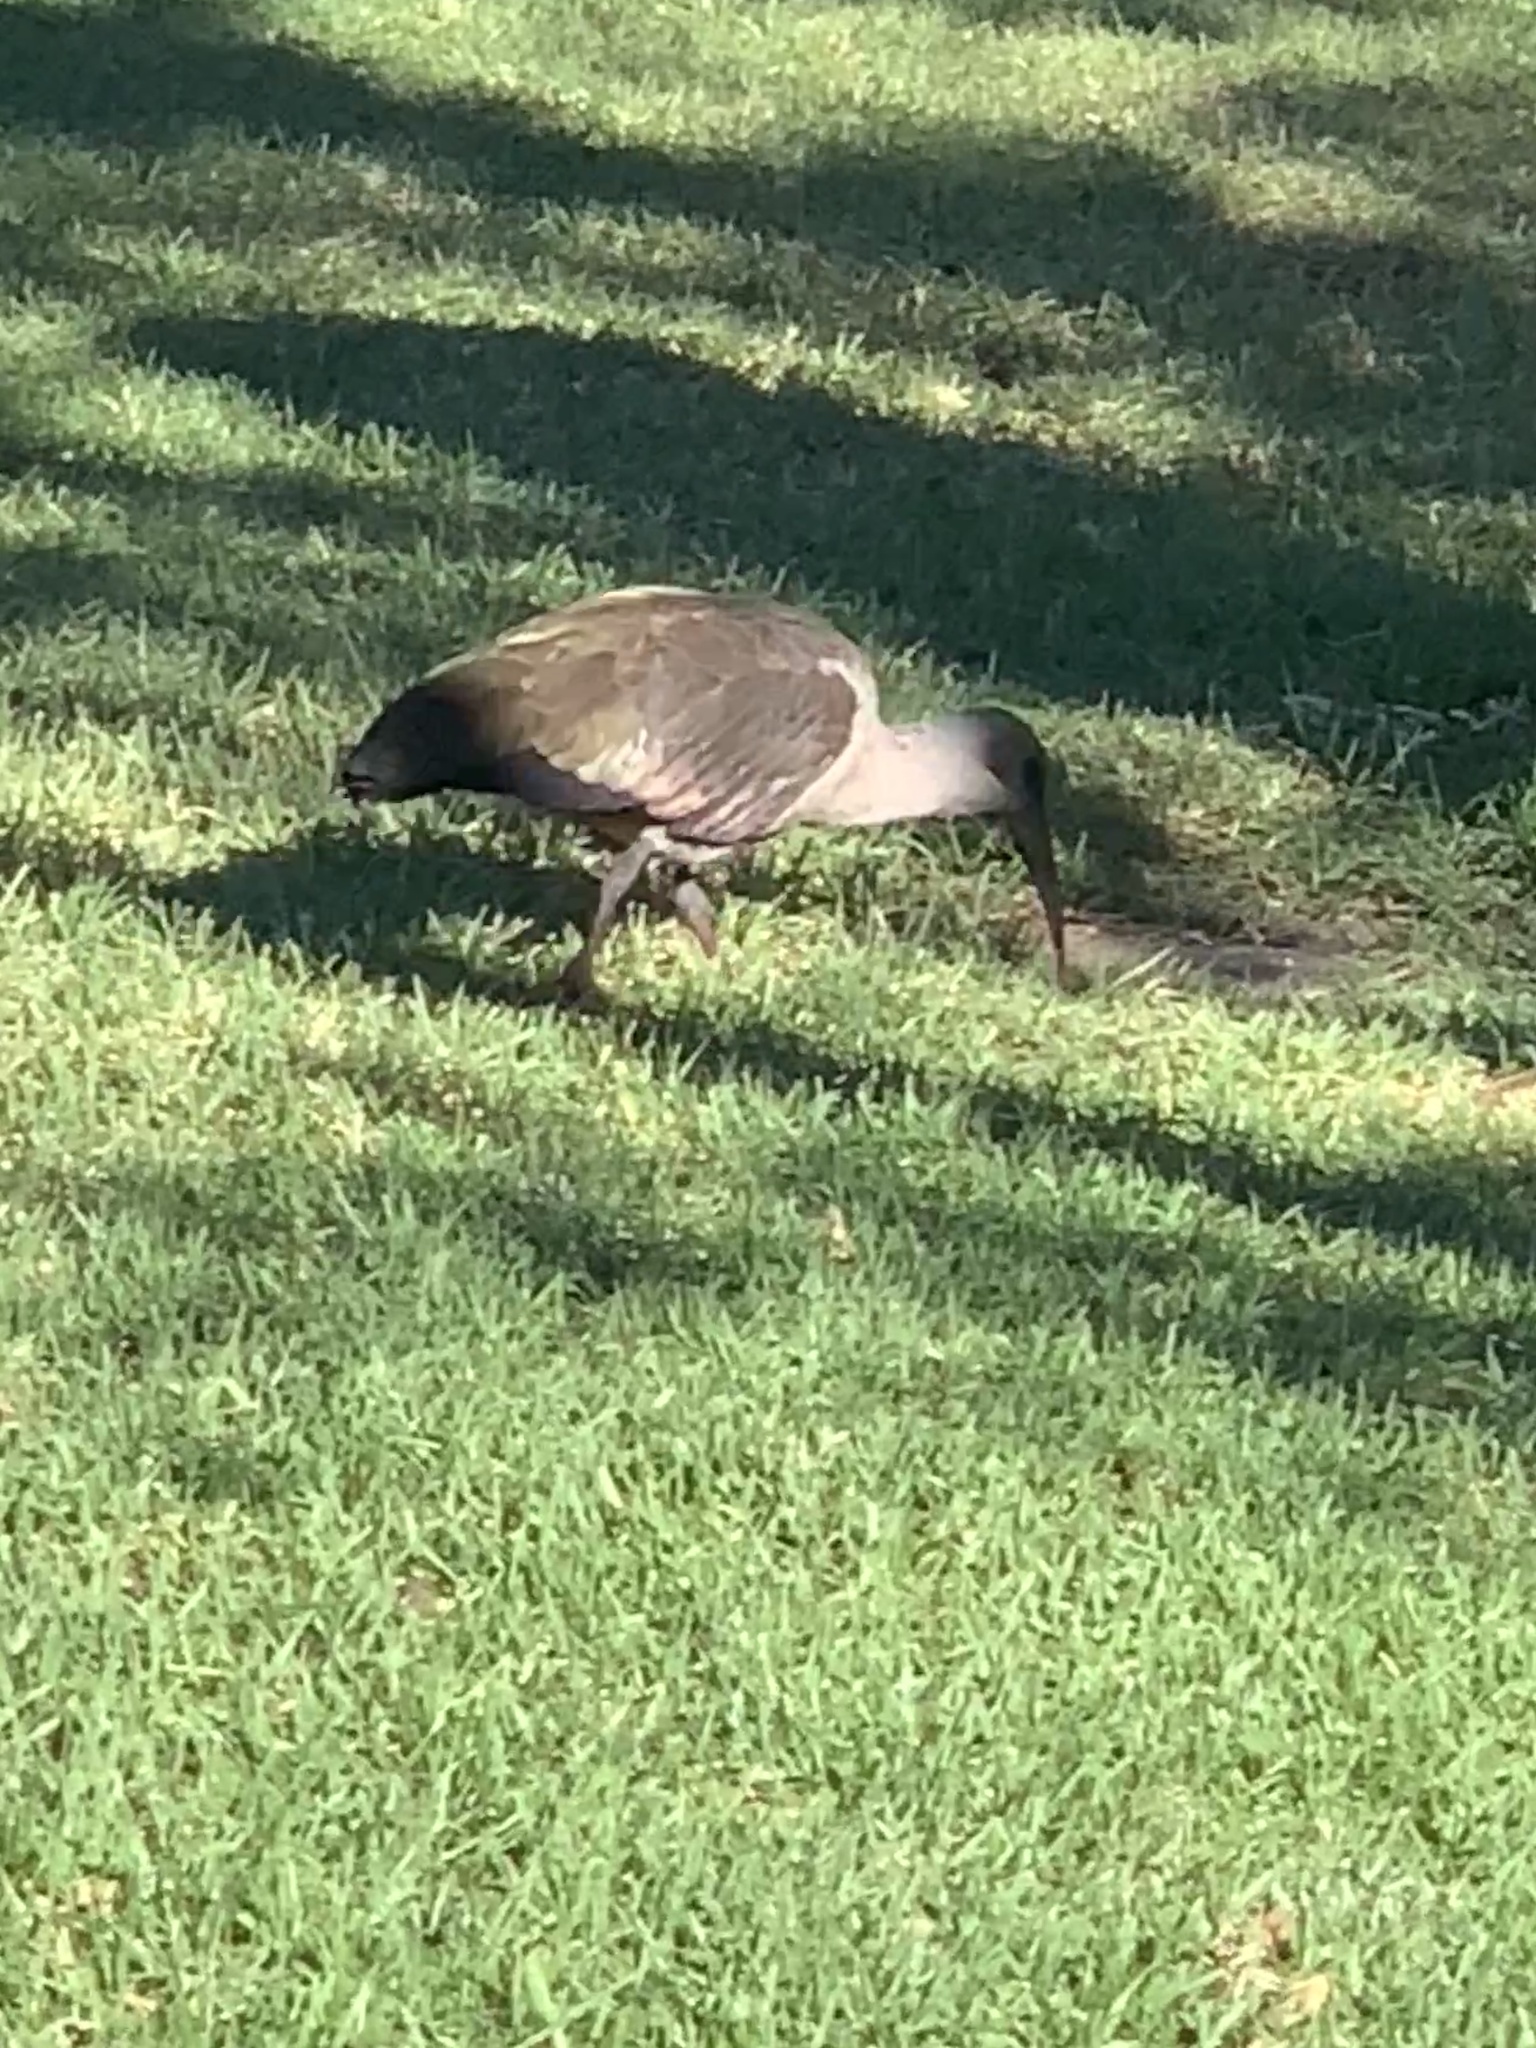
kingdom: Animalia
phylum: Chordata
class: Aves
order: Pelecaniformes
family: Threskiornithidae
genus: Bostrychia
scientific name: Bostrychia hagedash
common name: Hadada ibis
